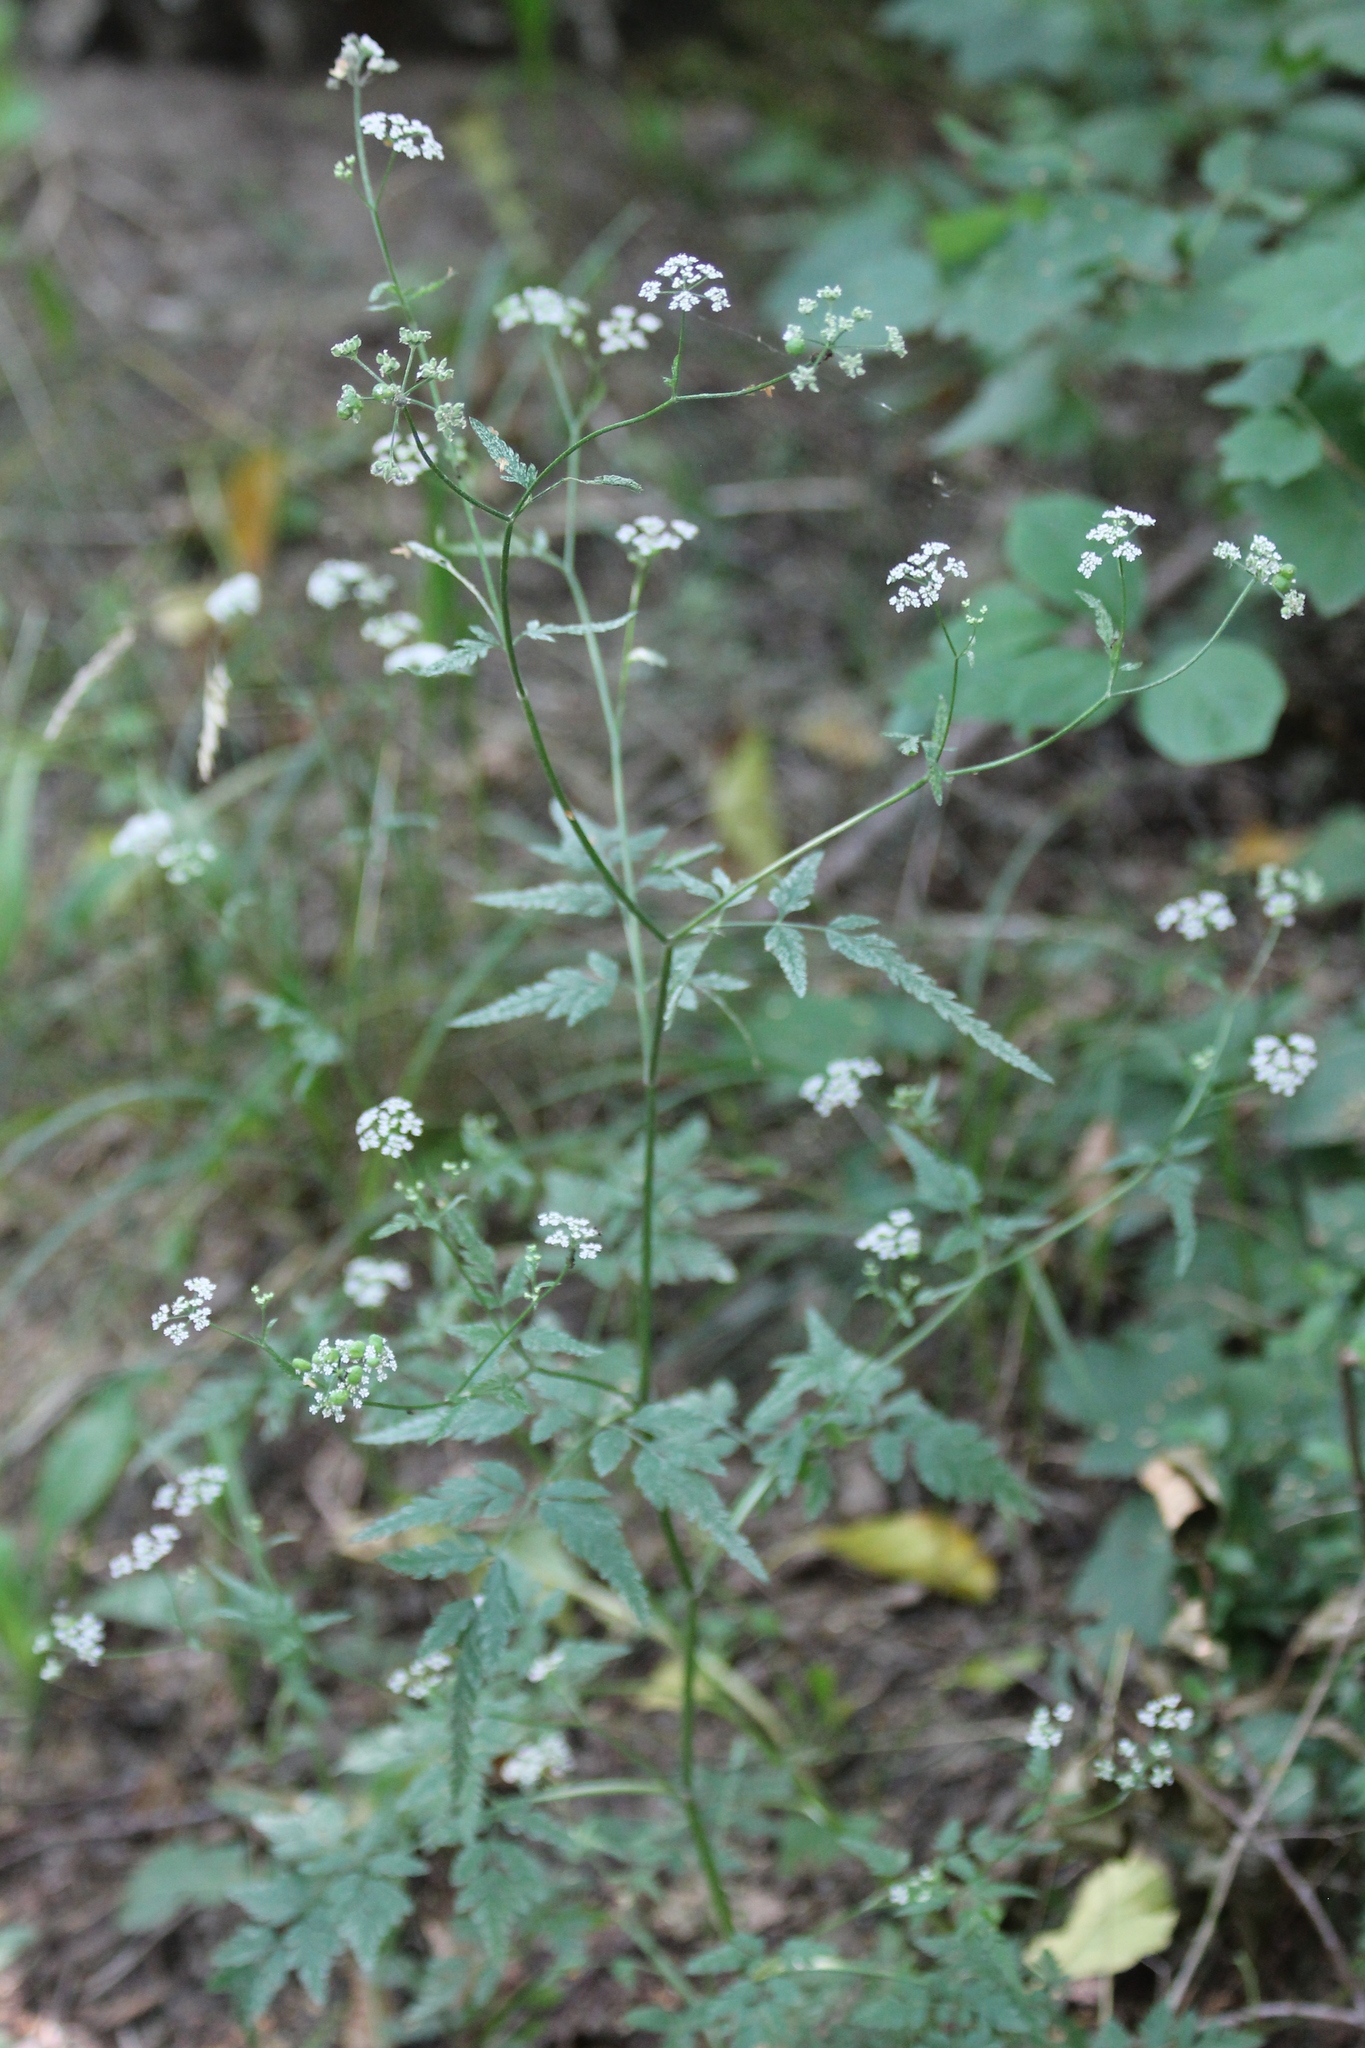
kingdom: Plantae
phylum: Tracheophyta
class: Magnoliopsida
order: Apiales
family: Apiaceae
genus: Torilis
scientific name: Torilis japonica
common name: Upright hedge-parsley
